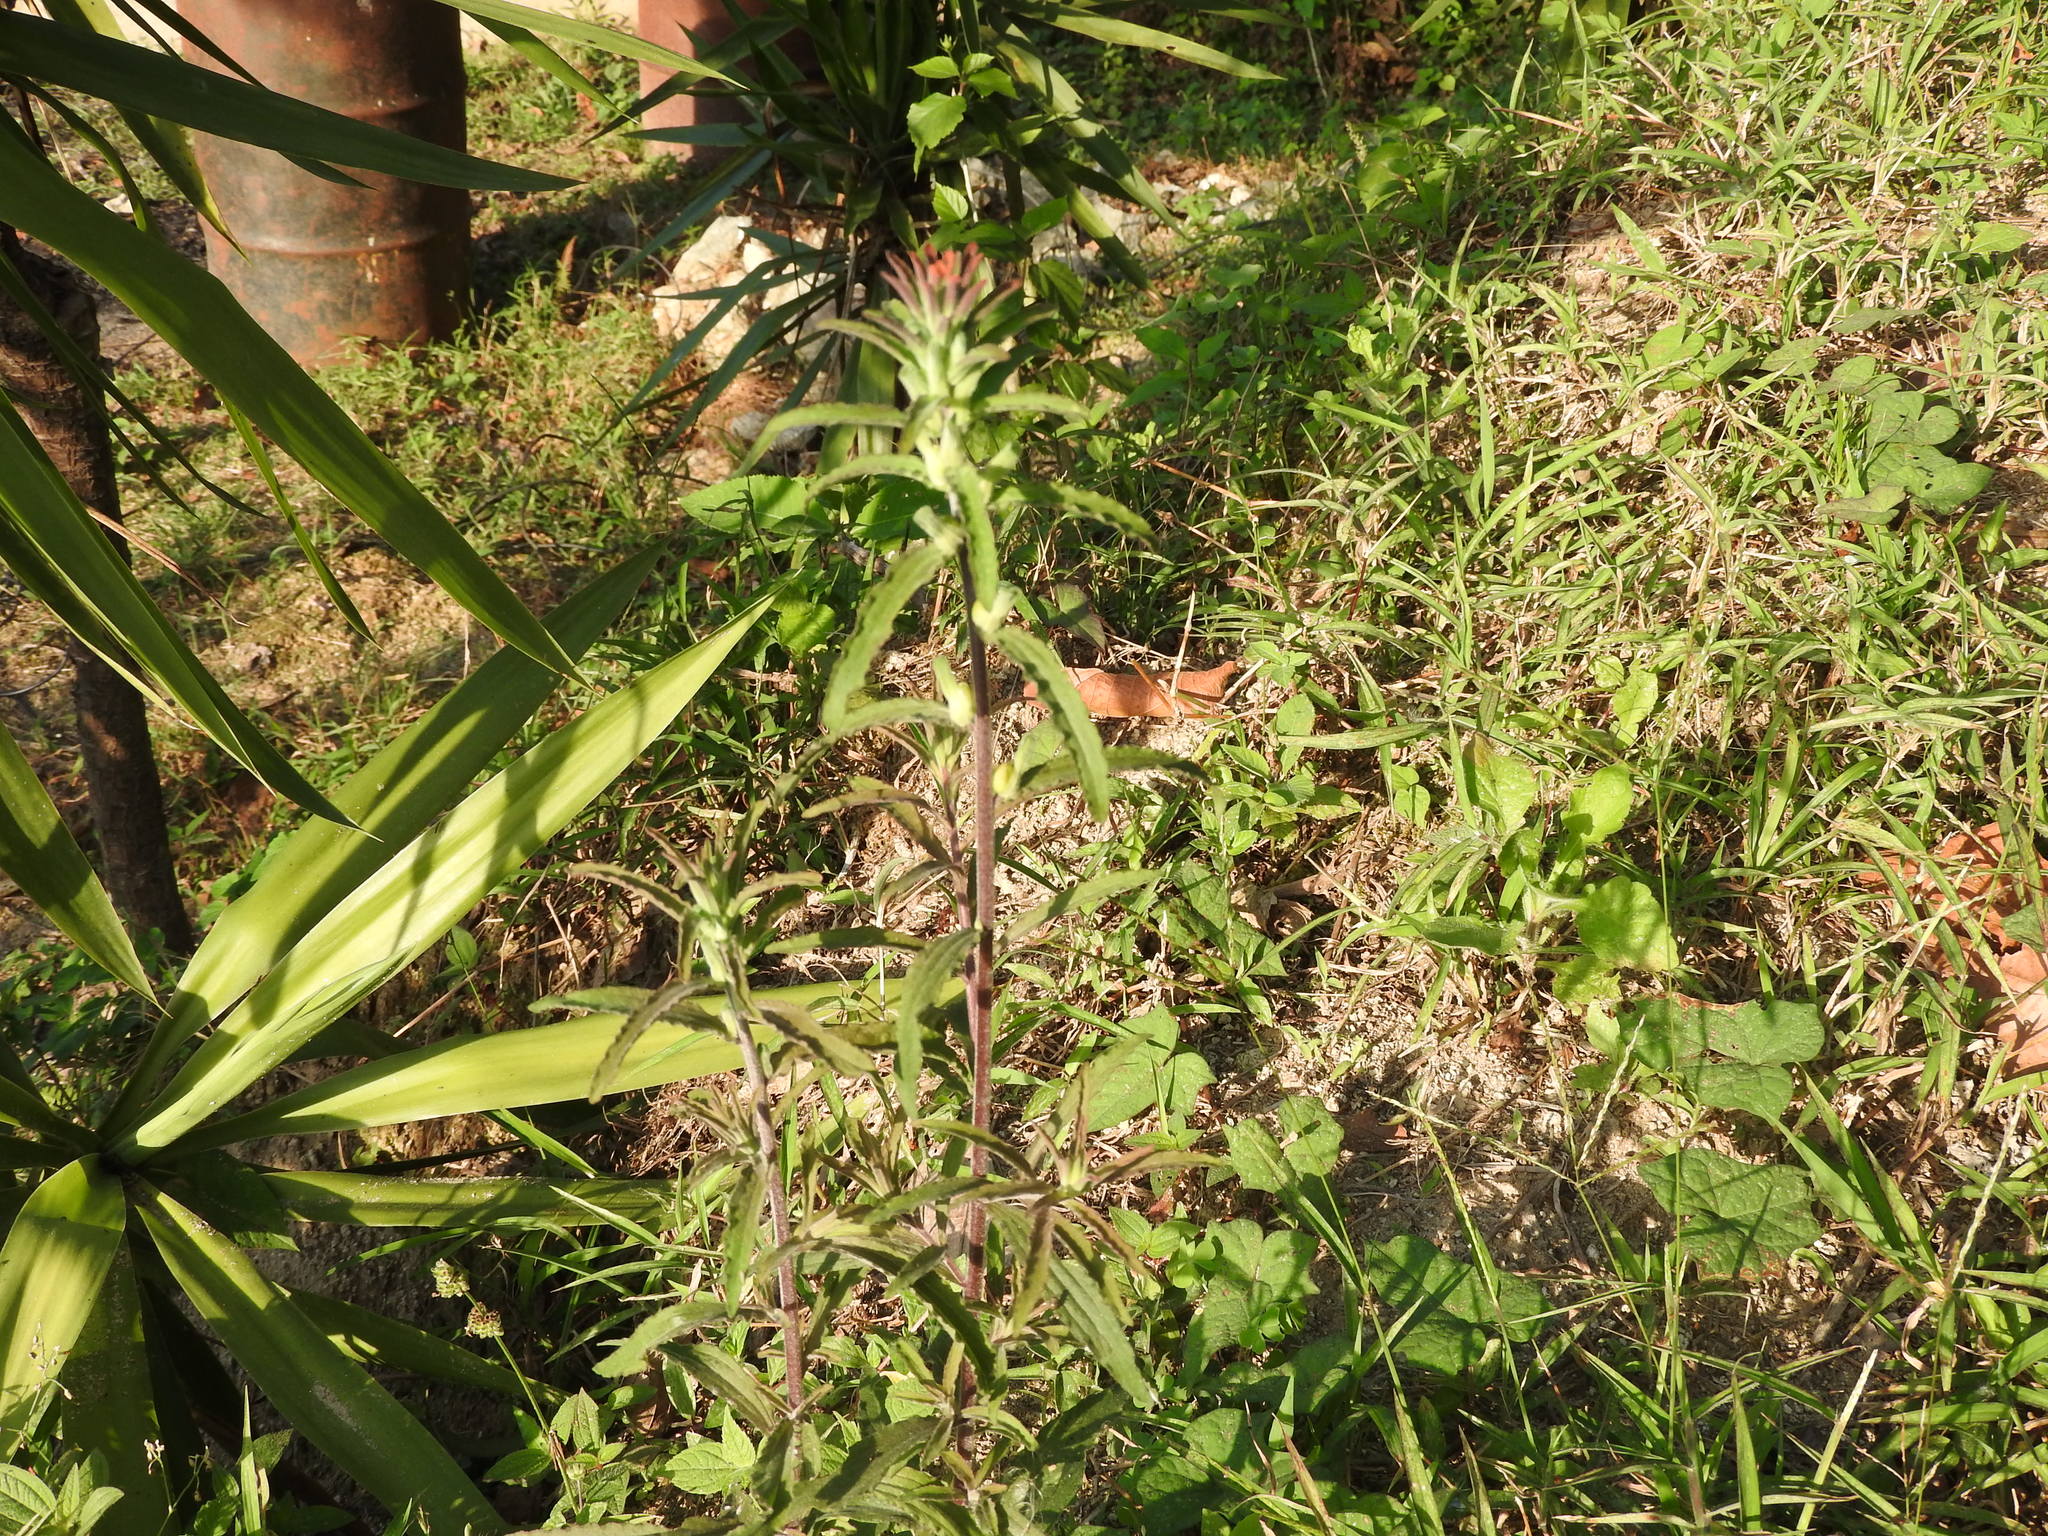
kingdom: Plantae
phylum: Tracheophyta
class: Magnoliopsida
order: Lamiales
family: Orobanchaceae
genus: Castilleja
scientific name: Castilleja arvensis
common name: Indian paintbrush
